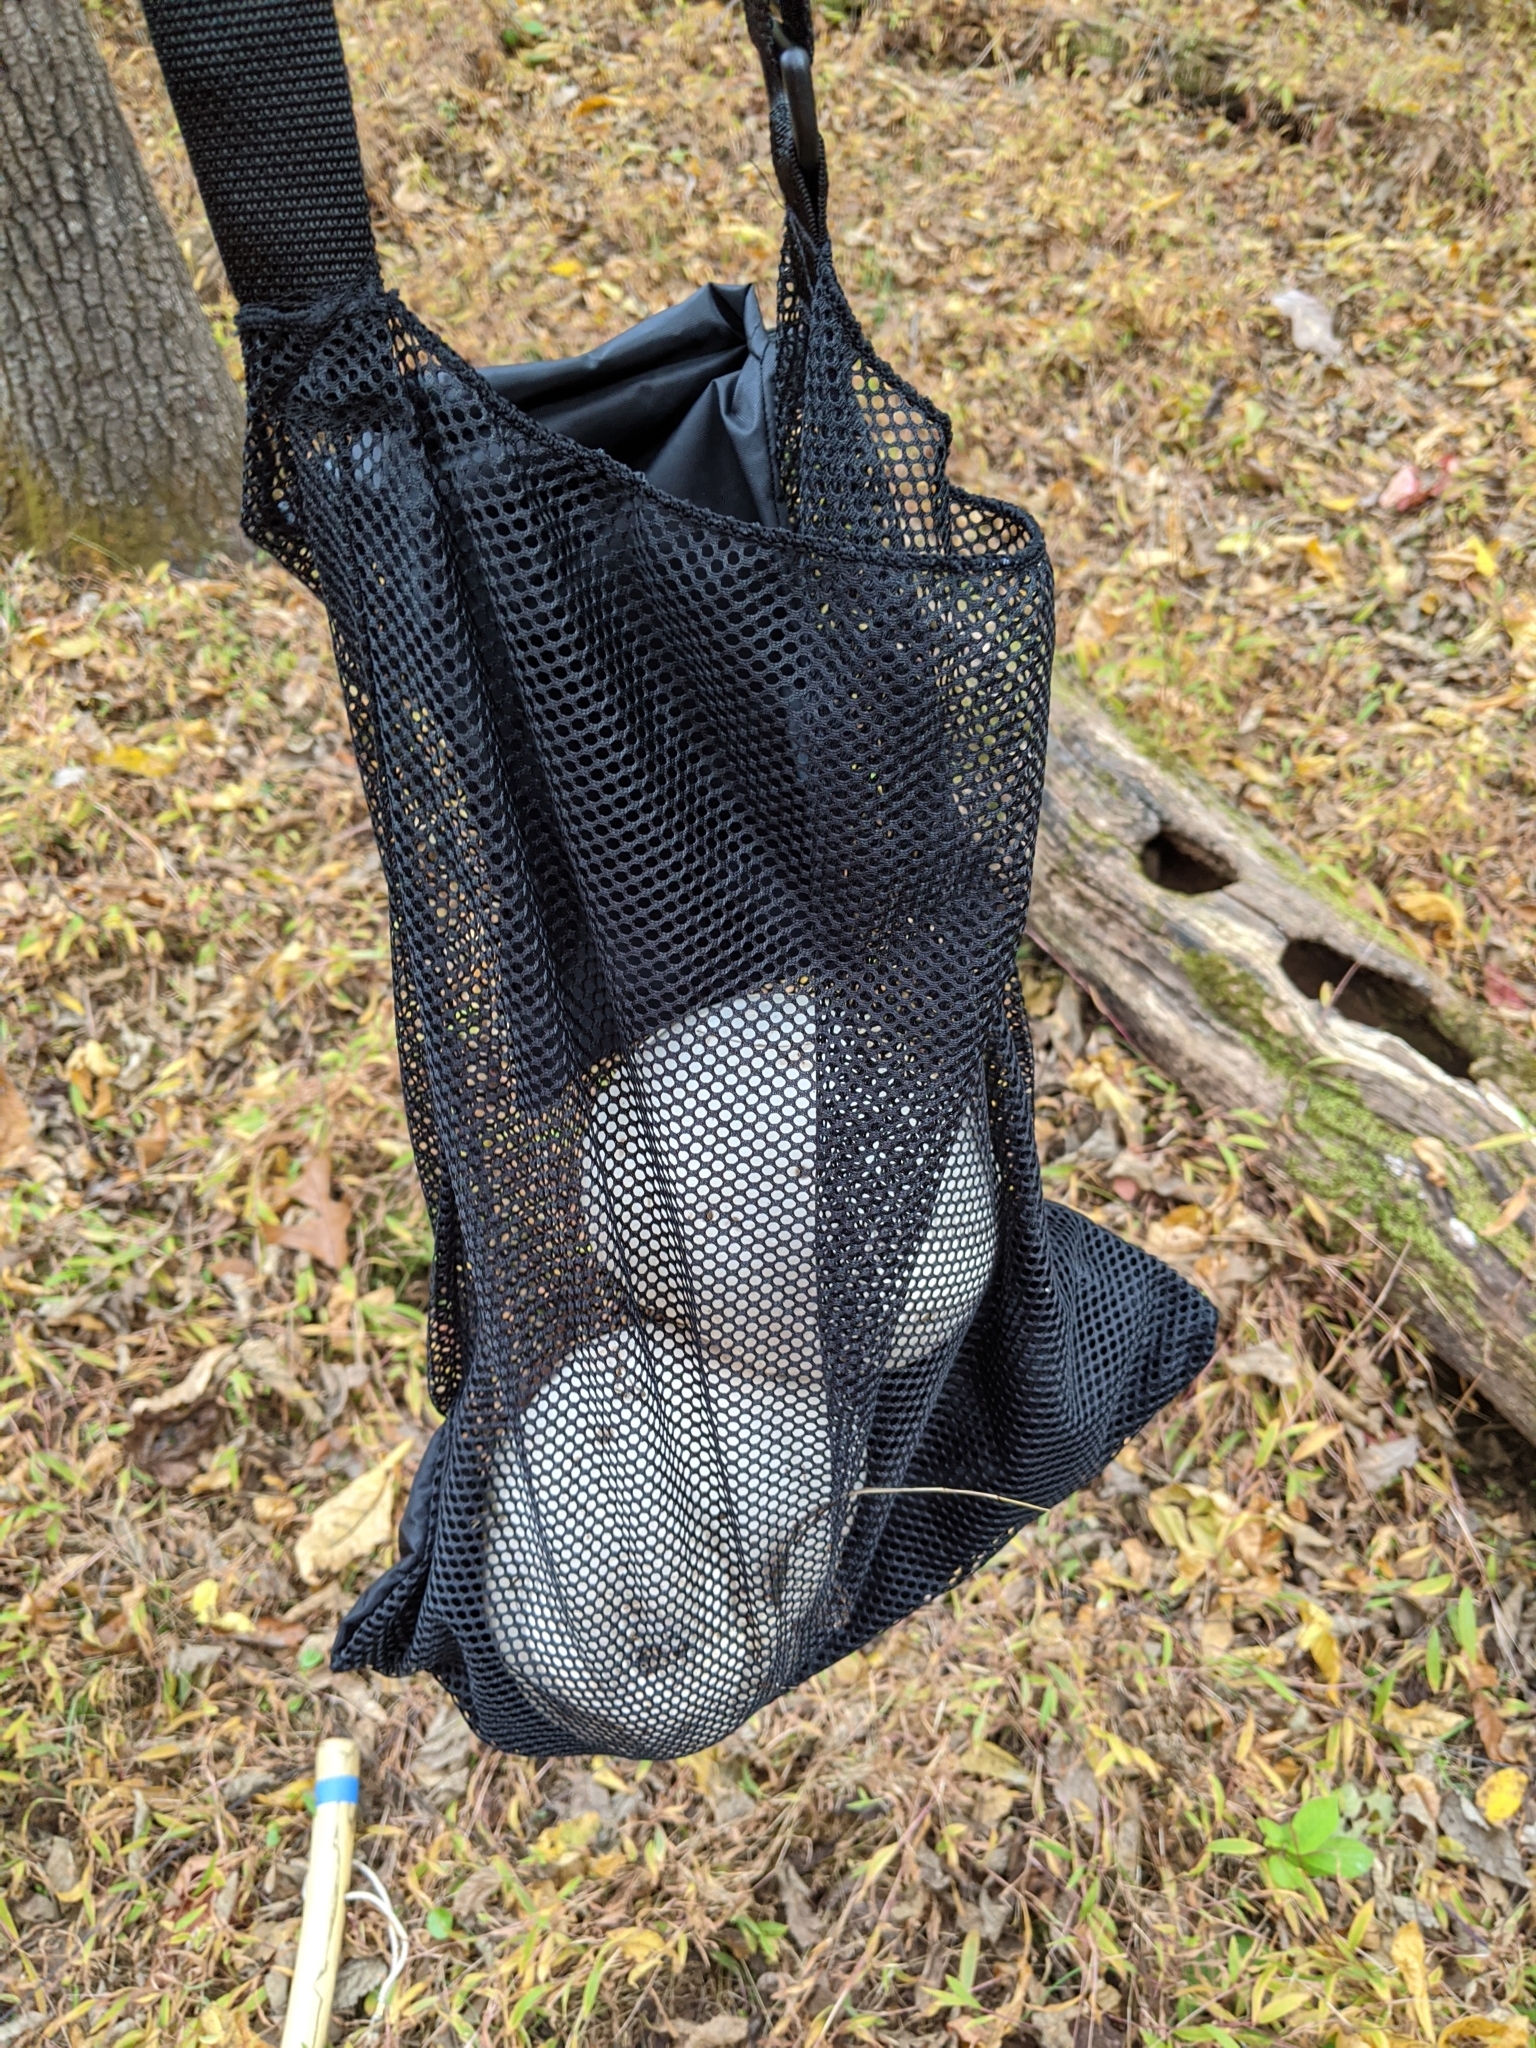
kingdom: Fungi
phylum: Basidiomycota
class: Agaricomycetes
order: Agaricales
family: Lycoperdaceae
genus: Calvatia
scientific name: Calvatia gigantea
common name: Giant puffball
